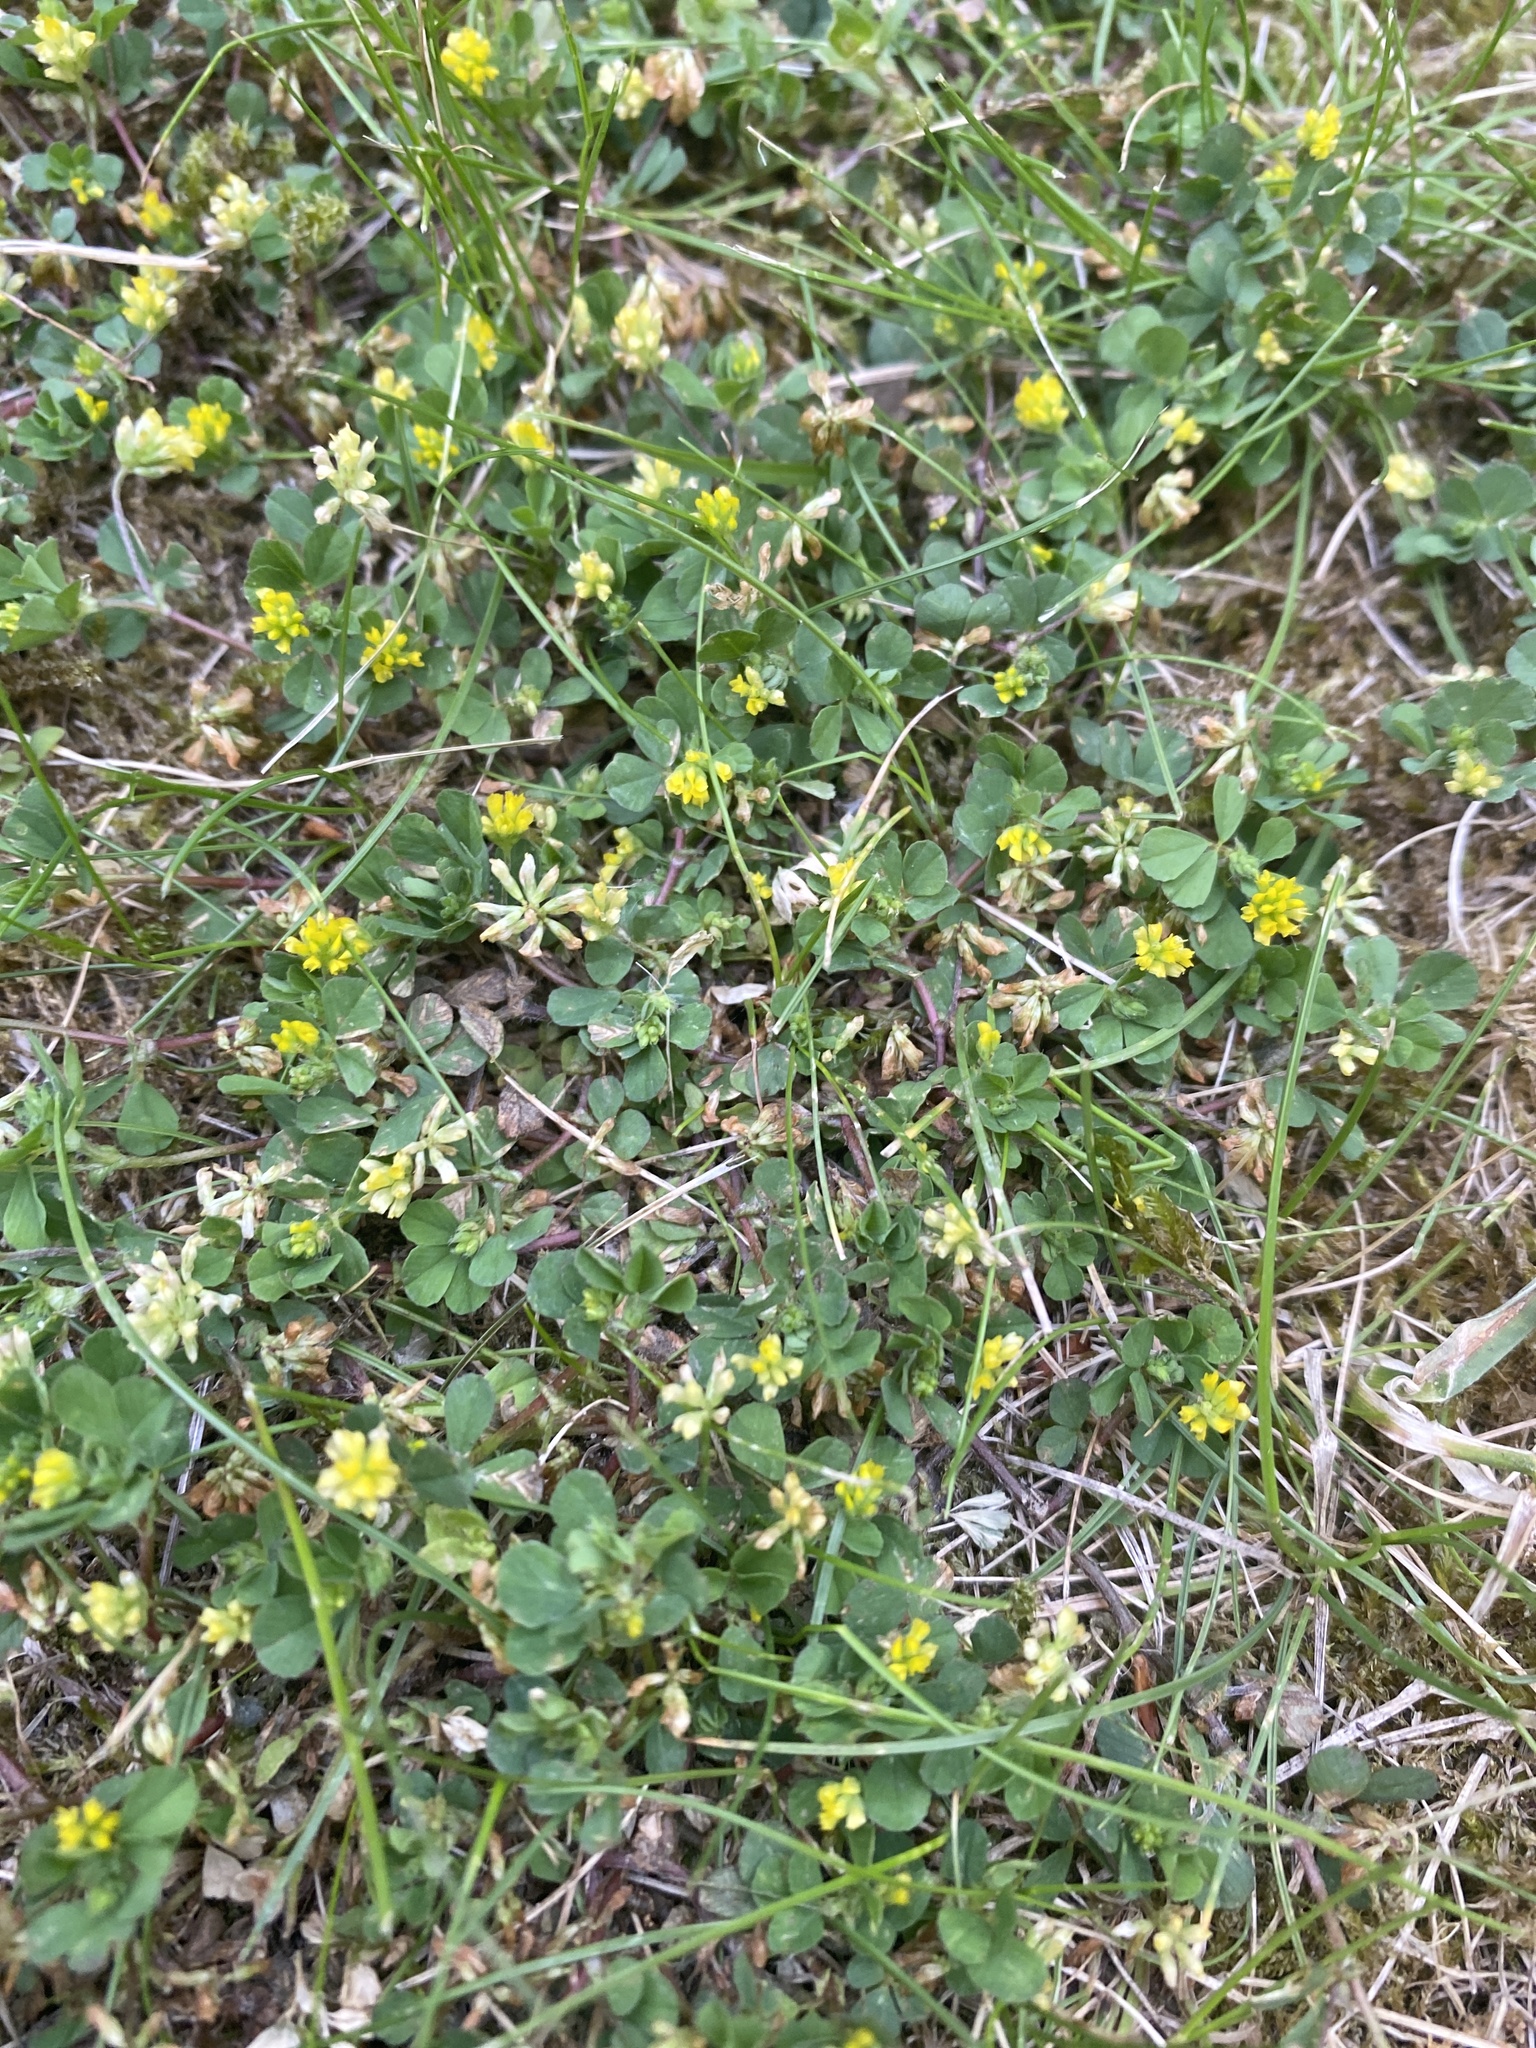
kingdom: Plantae
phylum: Tracheophyta
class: Magnoliopsida
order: Fabales
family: Fabaceae
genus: Trifolium
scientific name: Trifolium dubium
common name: Suckling clover
